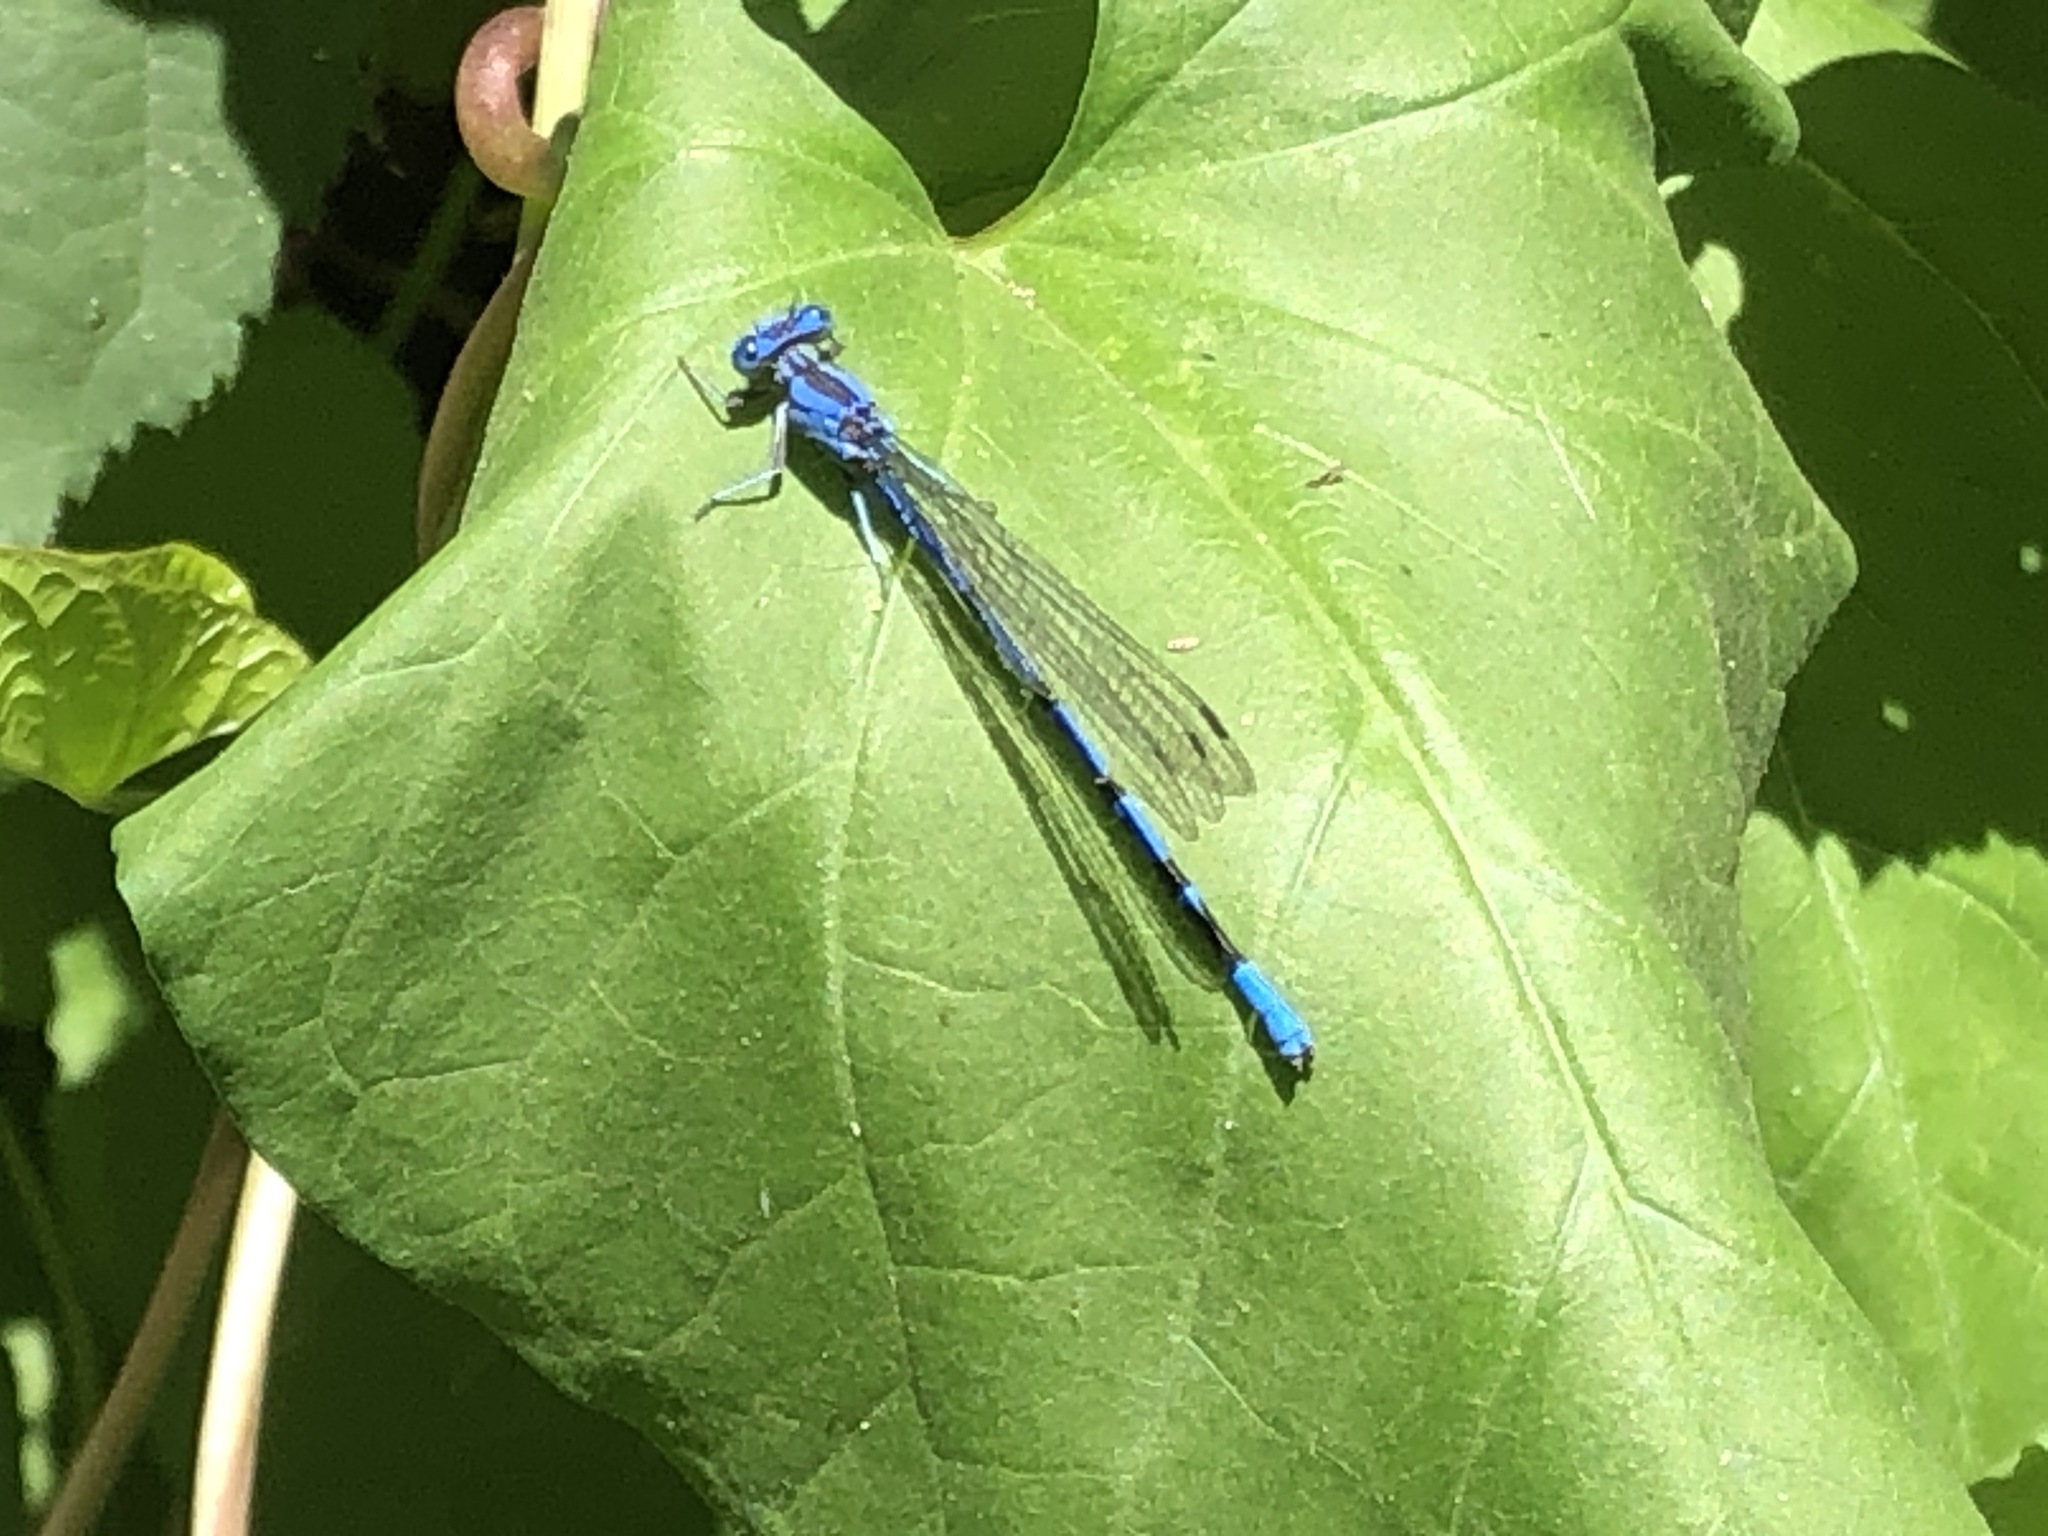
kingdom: Animalia
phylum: Arthropoda
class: Insecta
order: Odonata
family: Coenagrionidae
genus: Argia
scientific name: Argia agrioides
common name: California dancer
